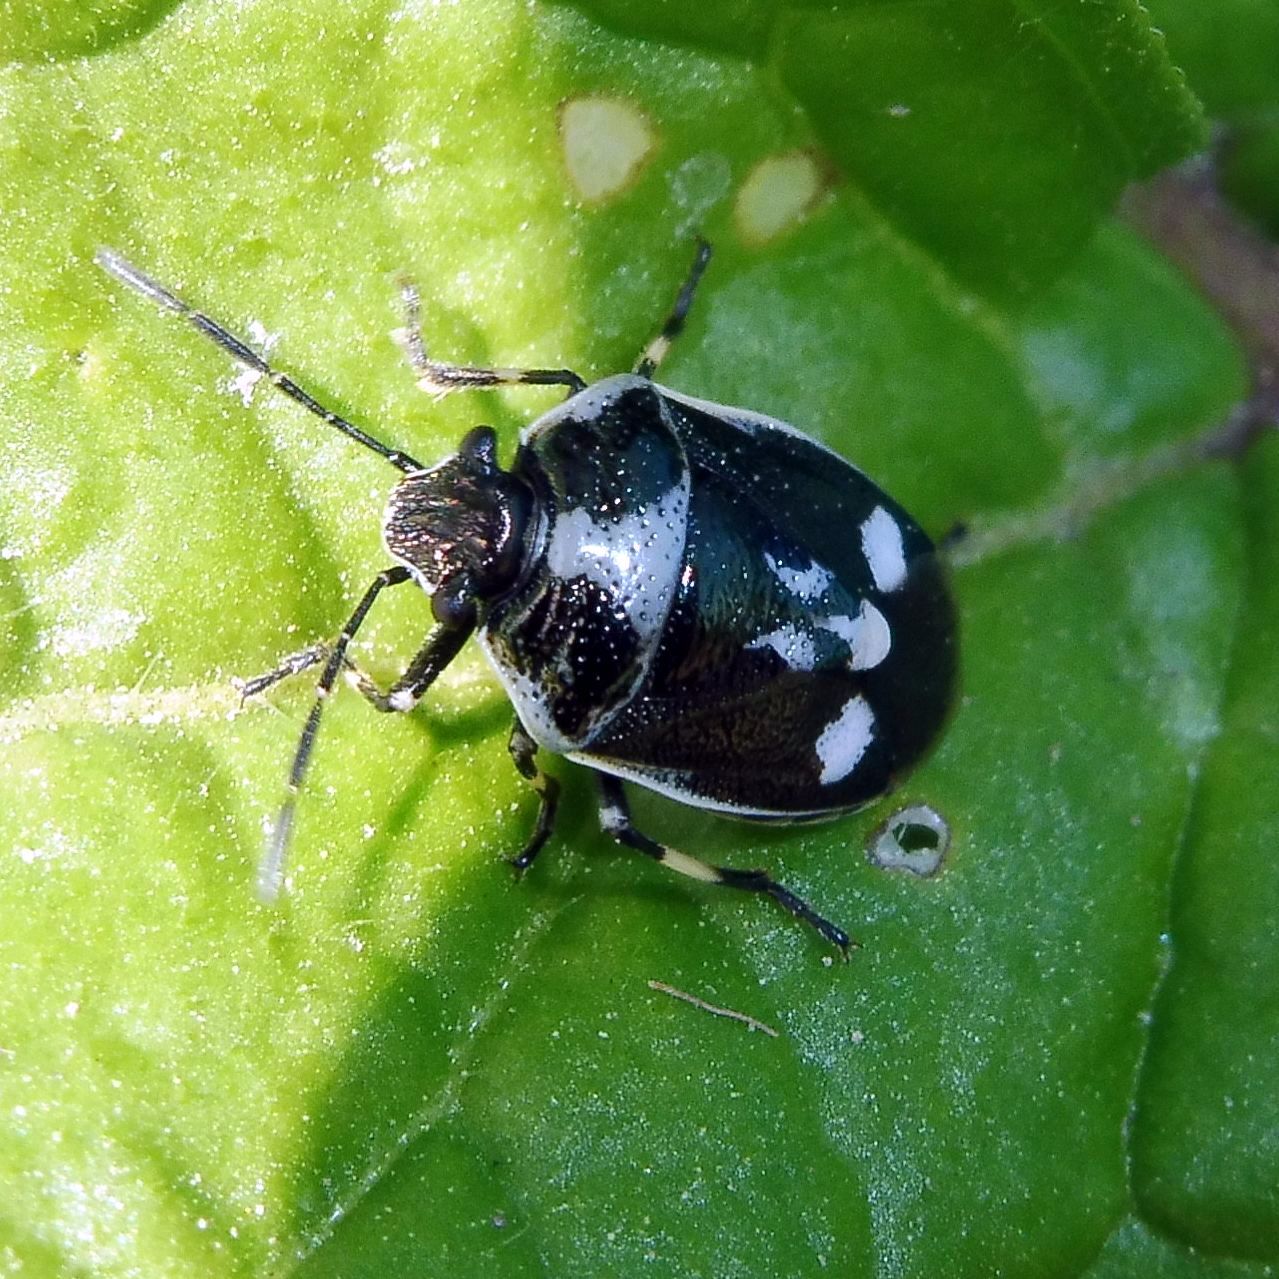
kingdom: Animalia
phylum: Arthropoda
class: Insecta
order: Hemiptera
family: Pentatomidae
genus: Eurydema
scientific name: Eurydema oleracea
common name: Cabbage bug
